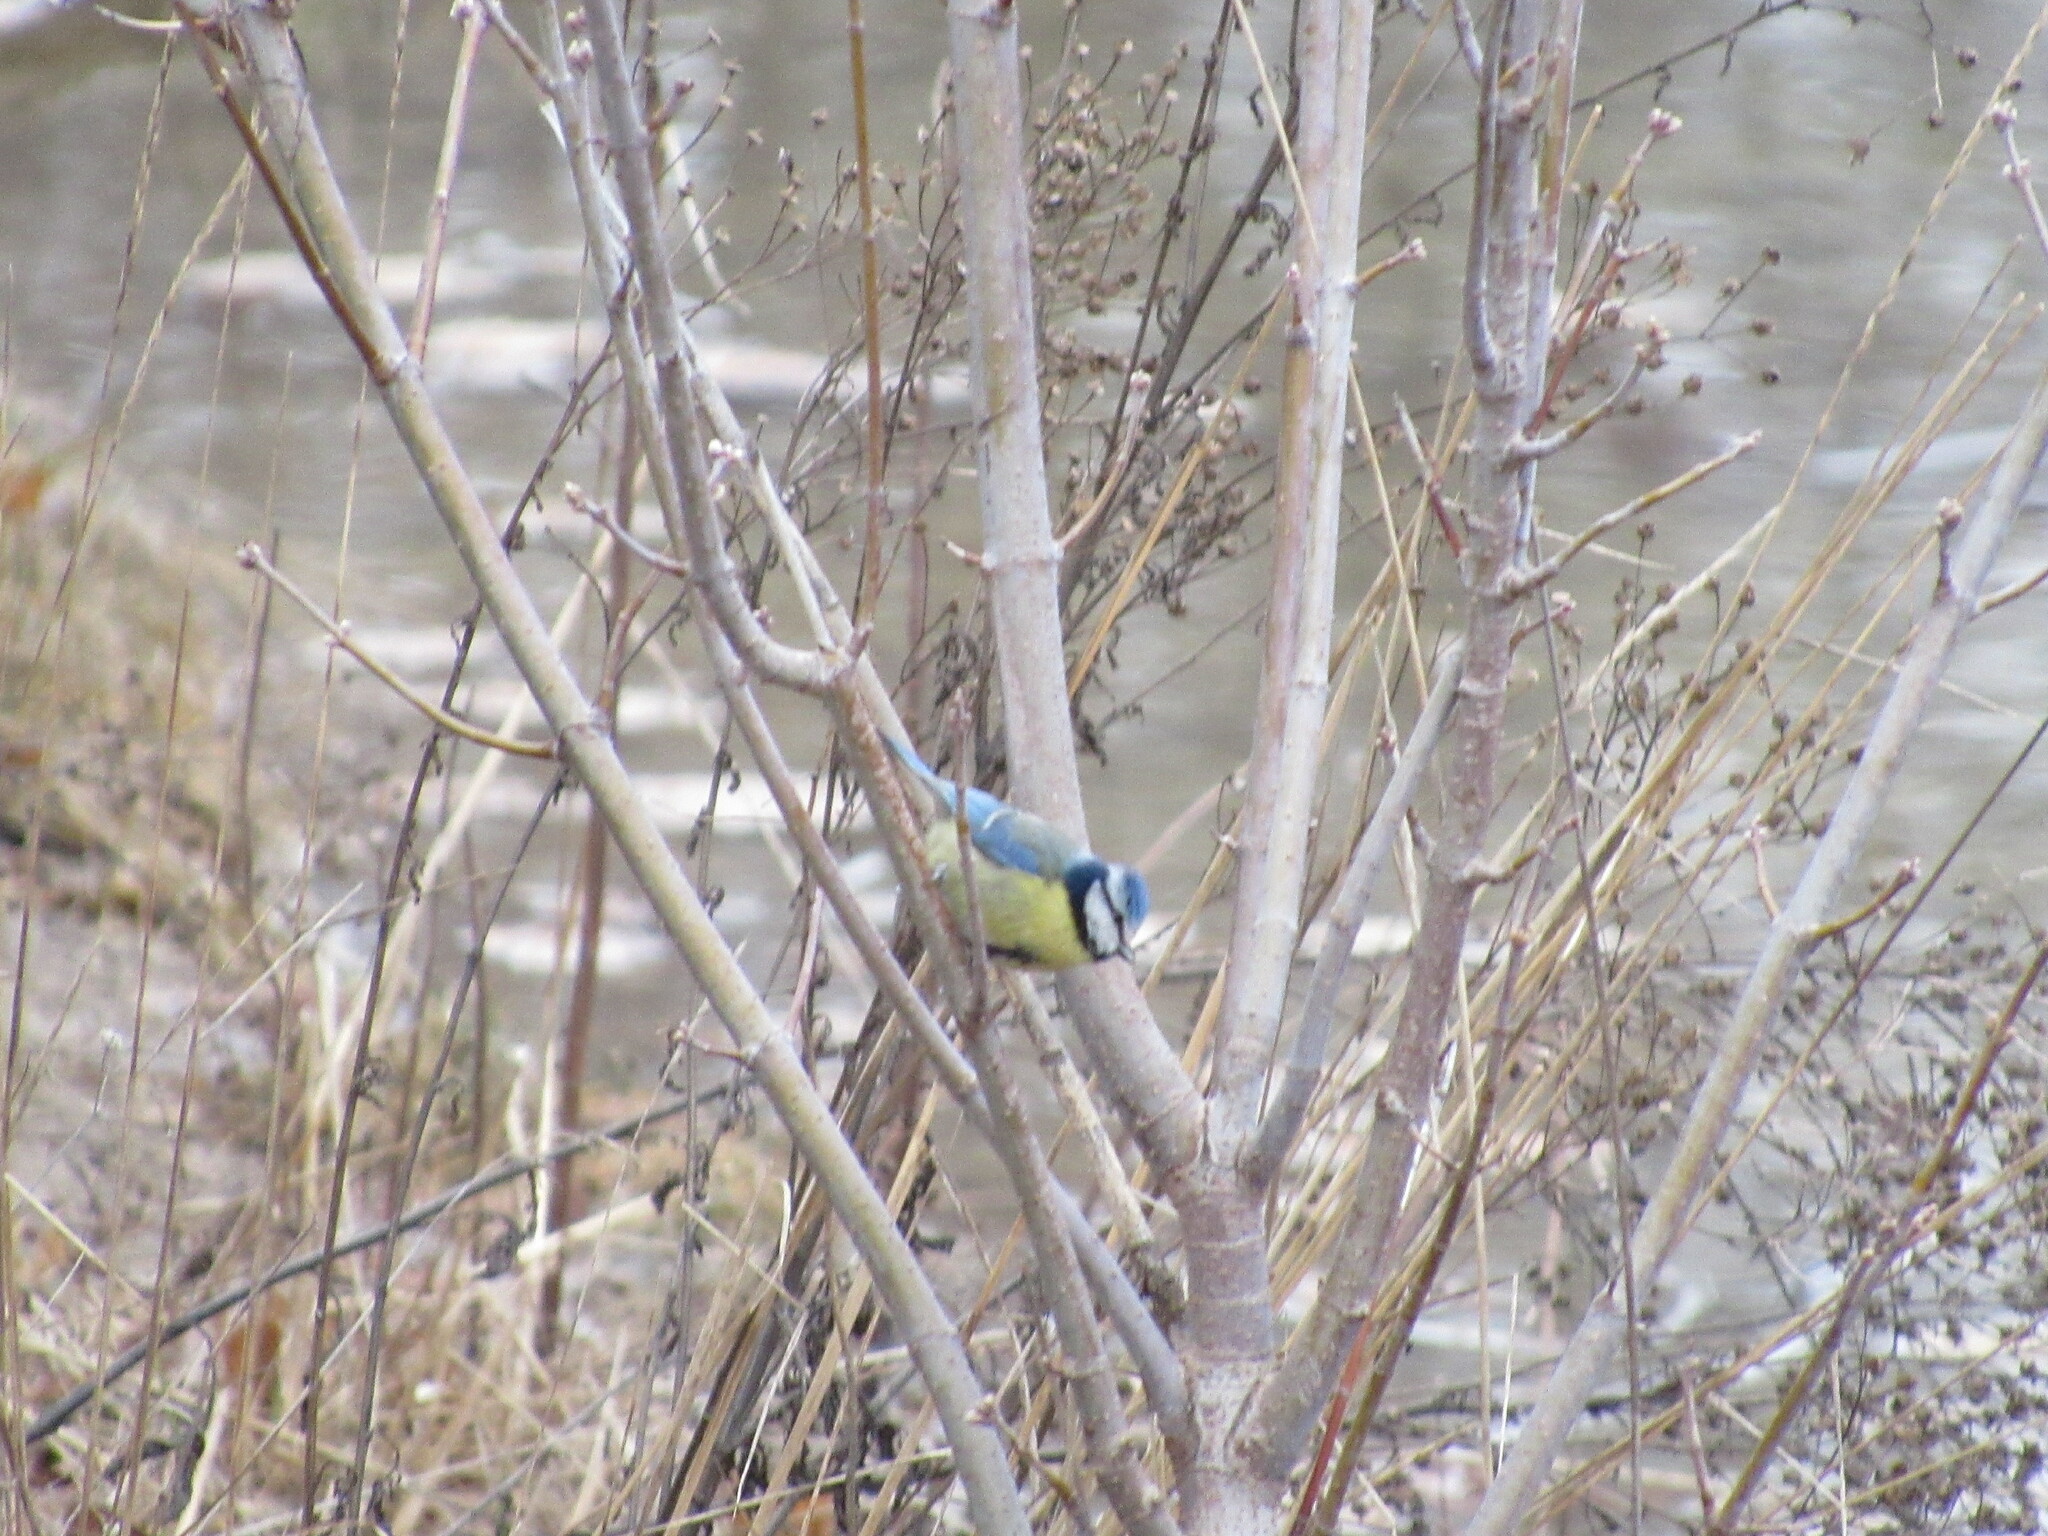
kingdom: Animalia
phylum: Chordata
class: Aves
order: Passeriformes
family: Paridae
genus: Cyanistes
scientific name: Cyanistes caeruleus
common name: Eurasian blue tit
